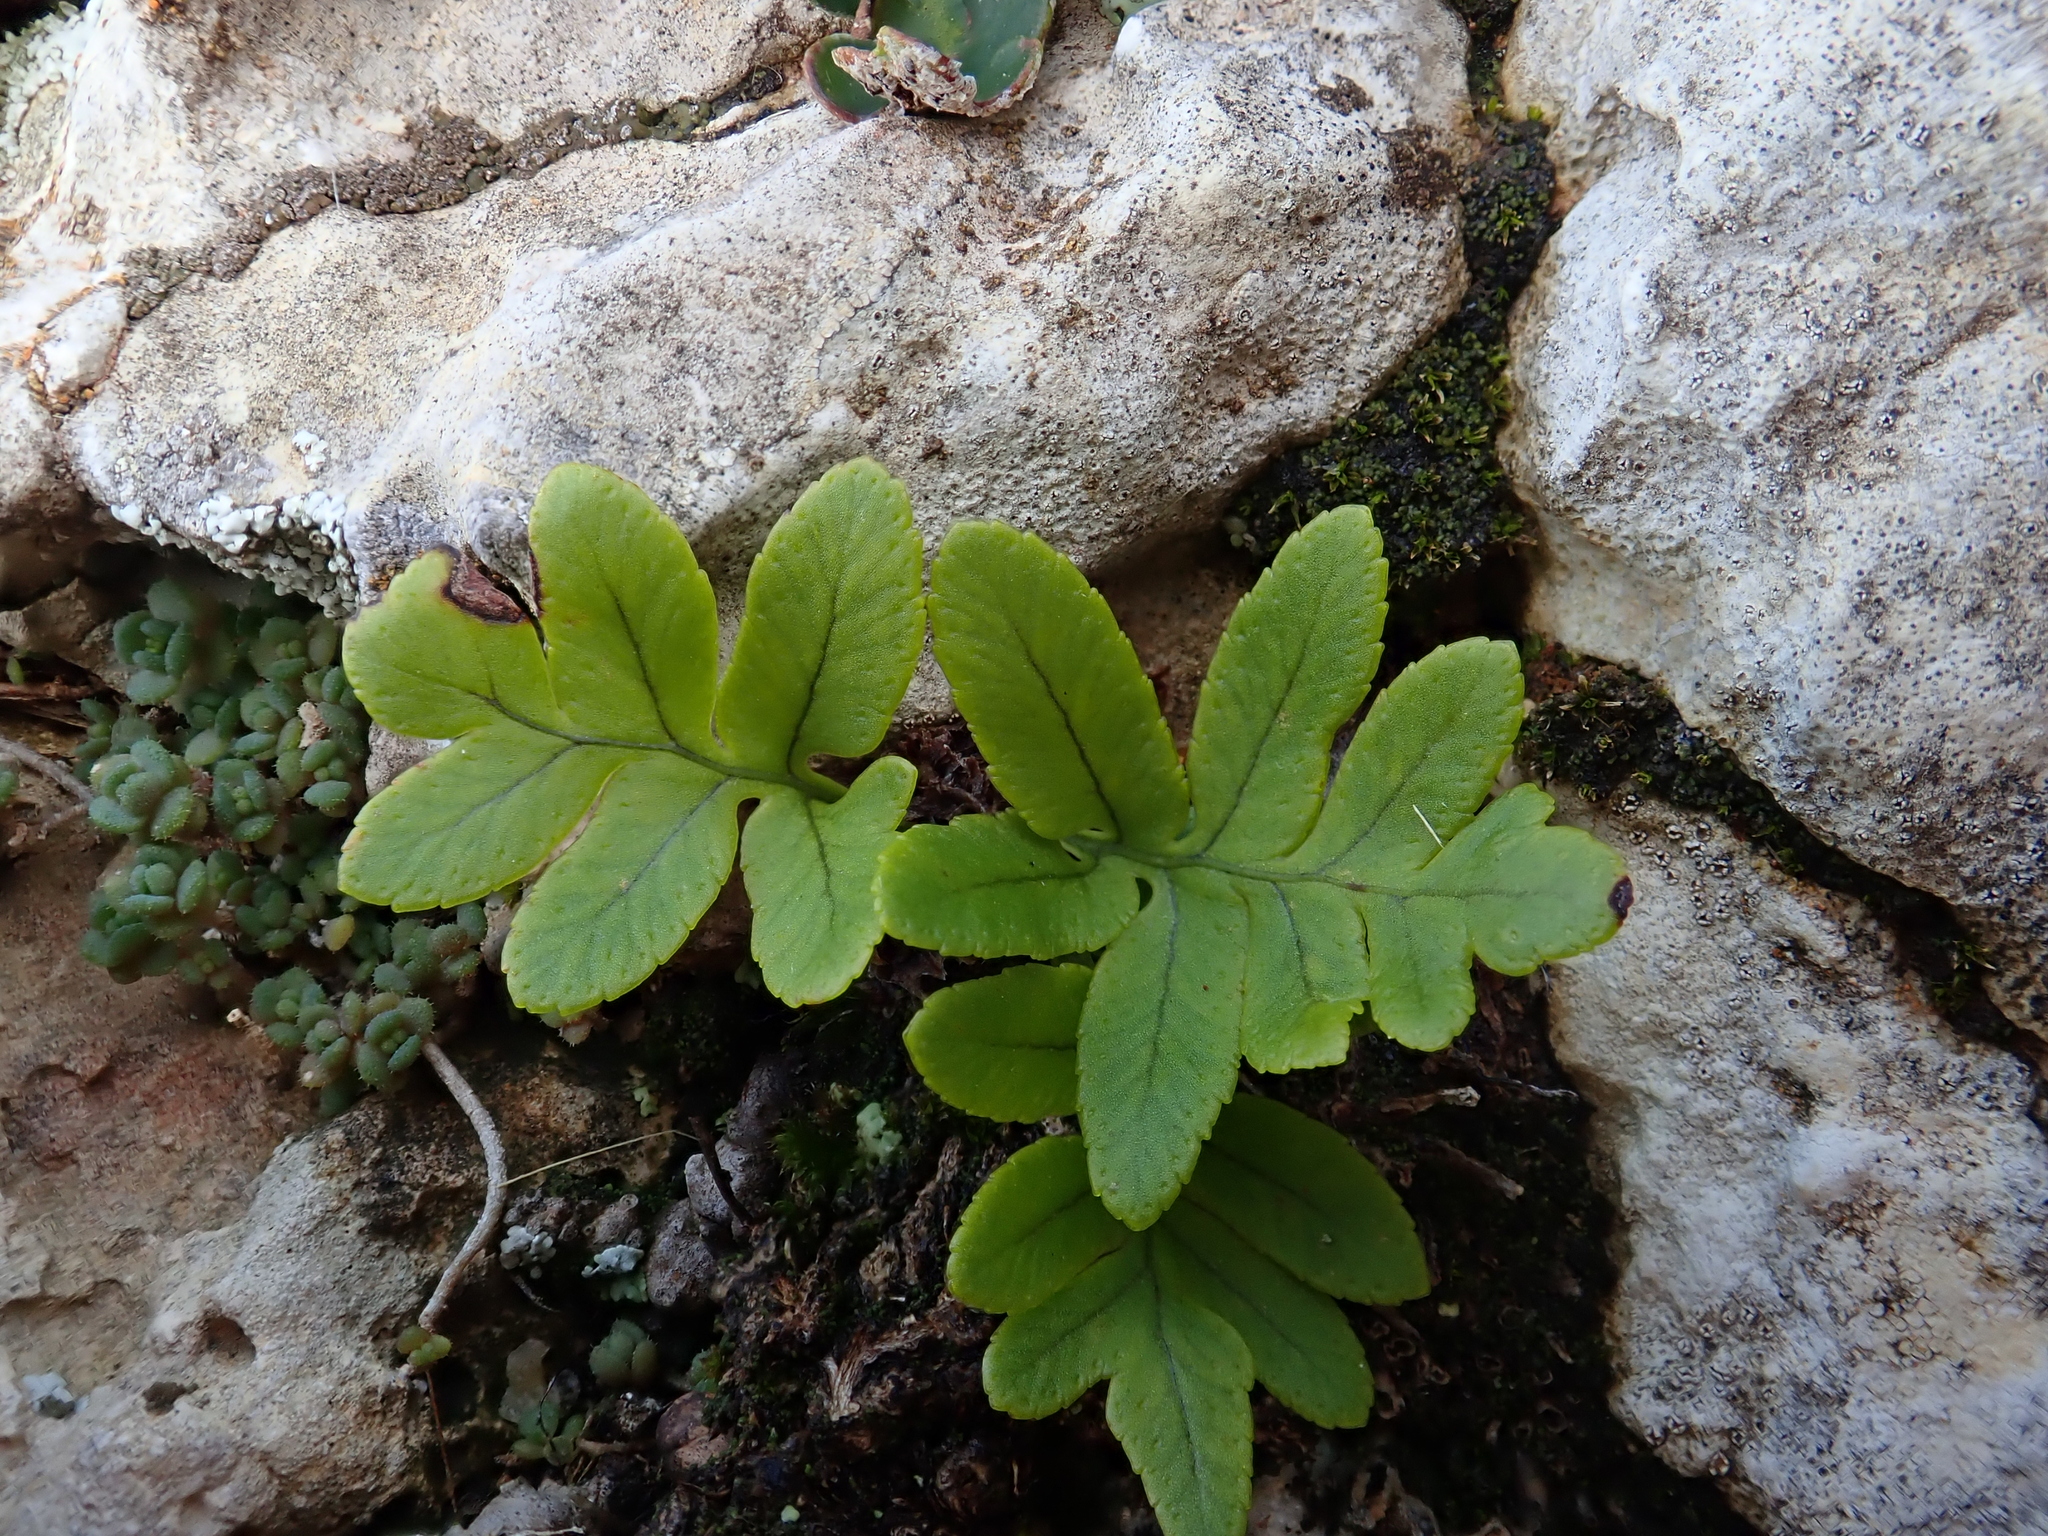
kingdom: Plantae
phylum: Tracheophyta
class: Polypodiopsida
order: Polypodiales
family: Polypodiaceae
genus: Polypodium
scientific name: Polypodium cambricum
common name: Southern polypody
